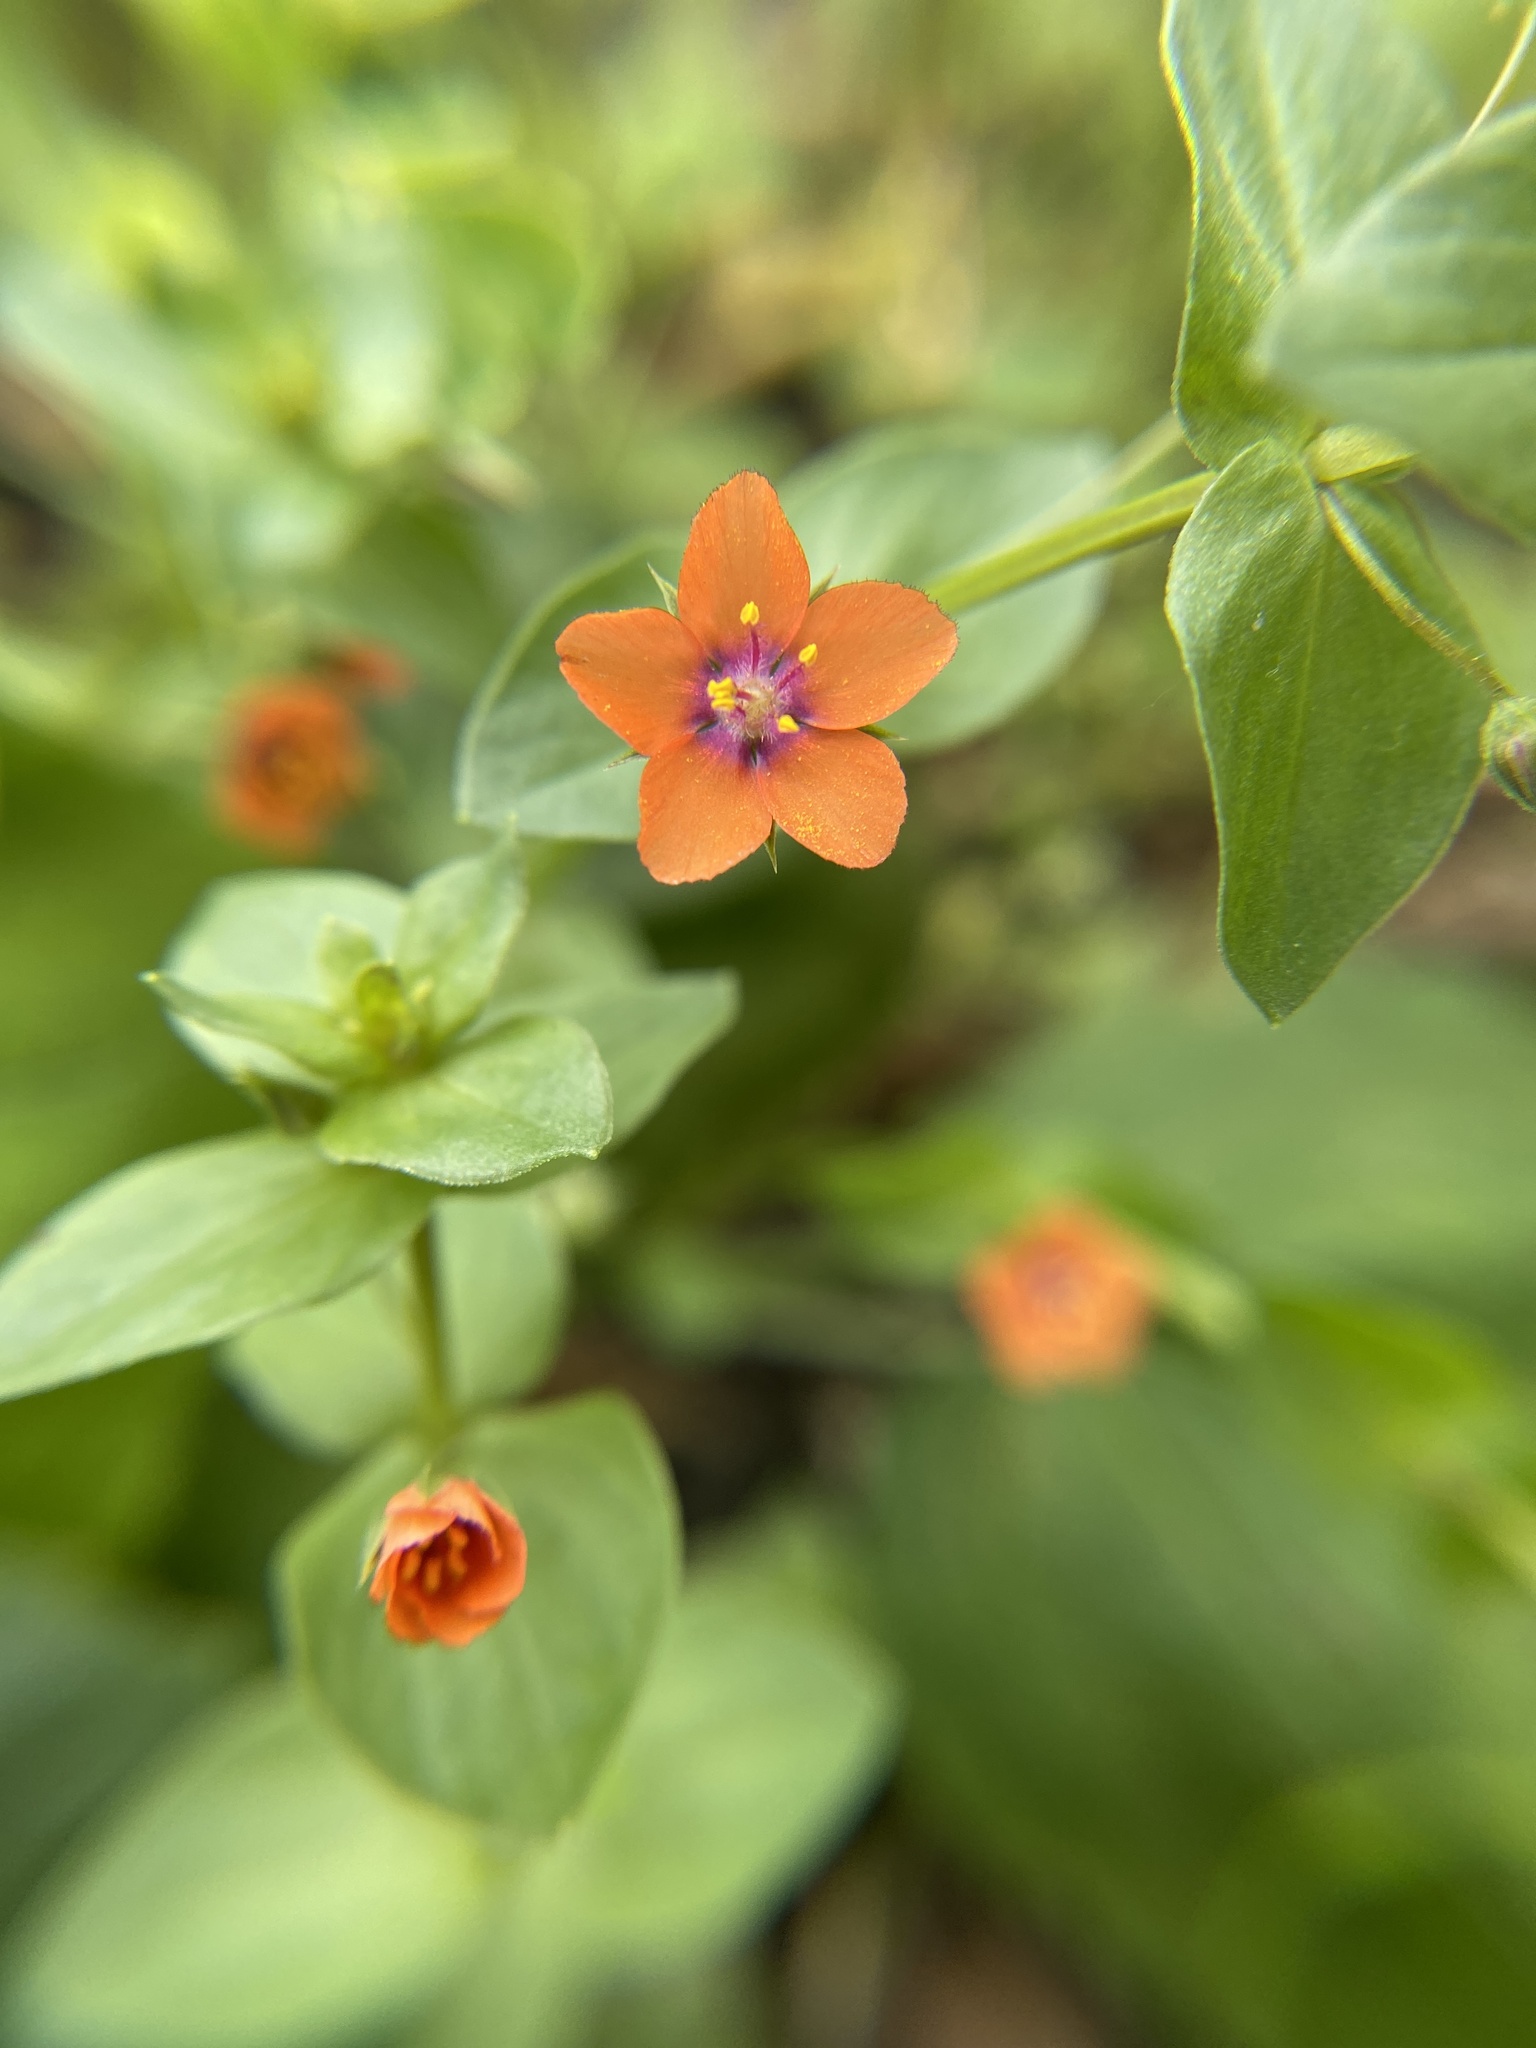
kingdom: Plantae
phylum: Tracheophyta
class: Magnoliopsida
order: Ericales
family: Primulaceae
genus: Lysimachia
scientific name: Lysimachia arvensis
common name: Scarlet pimpernel
